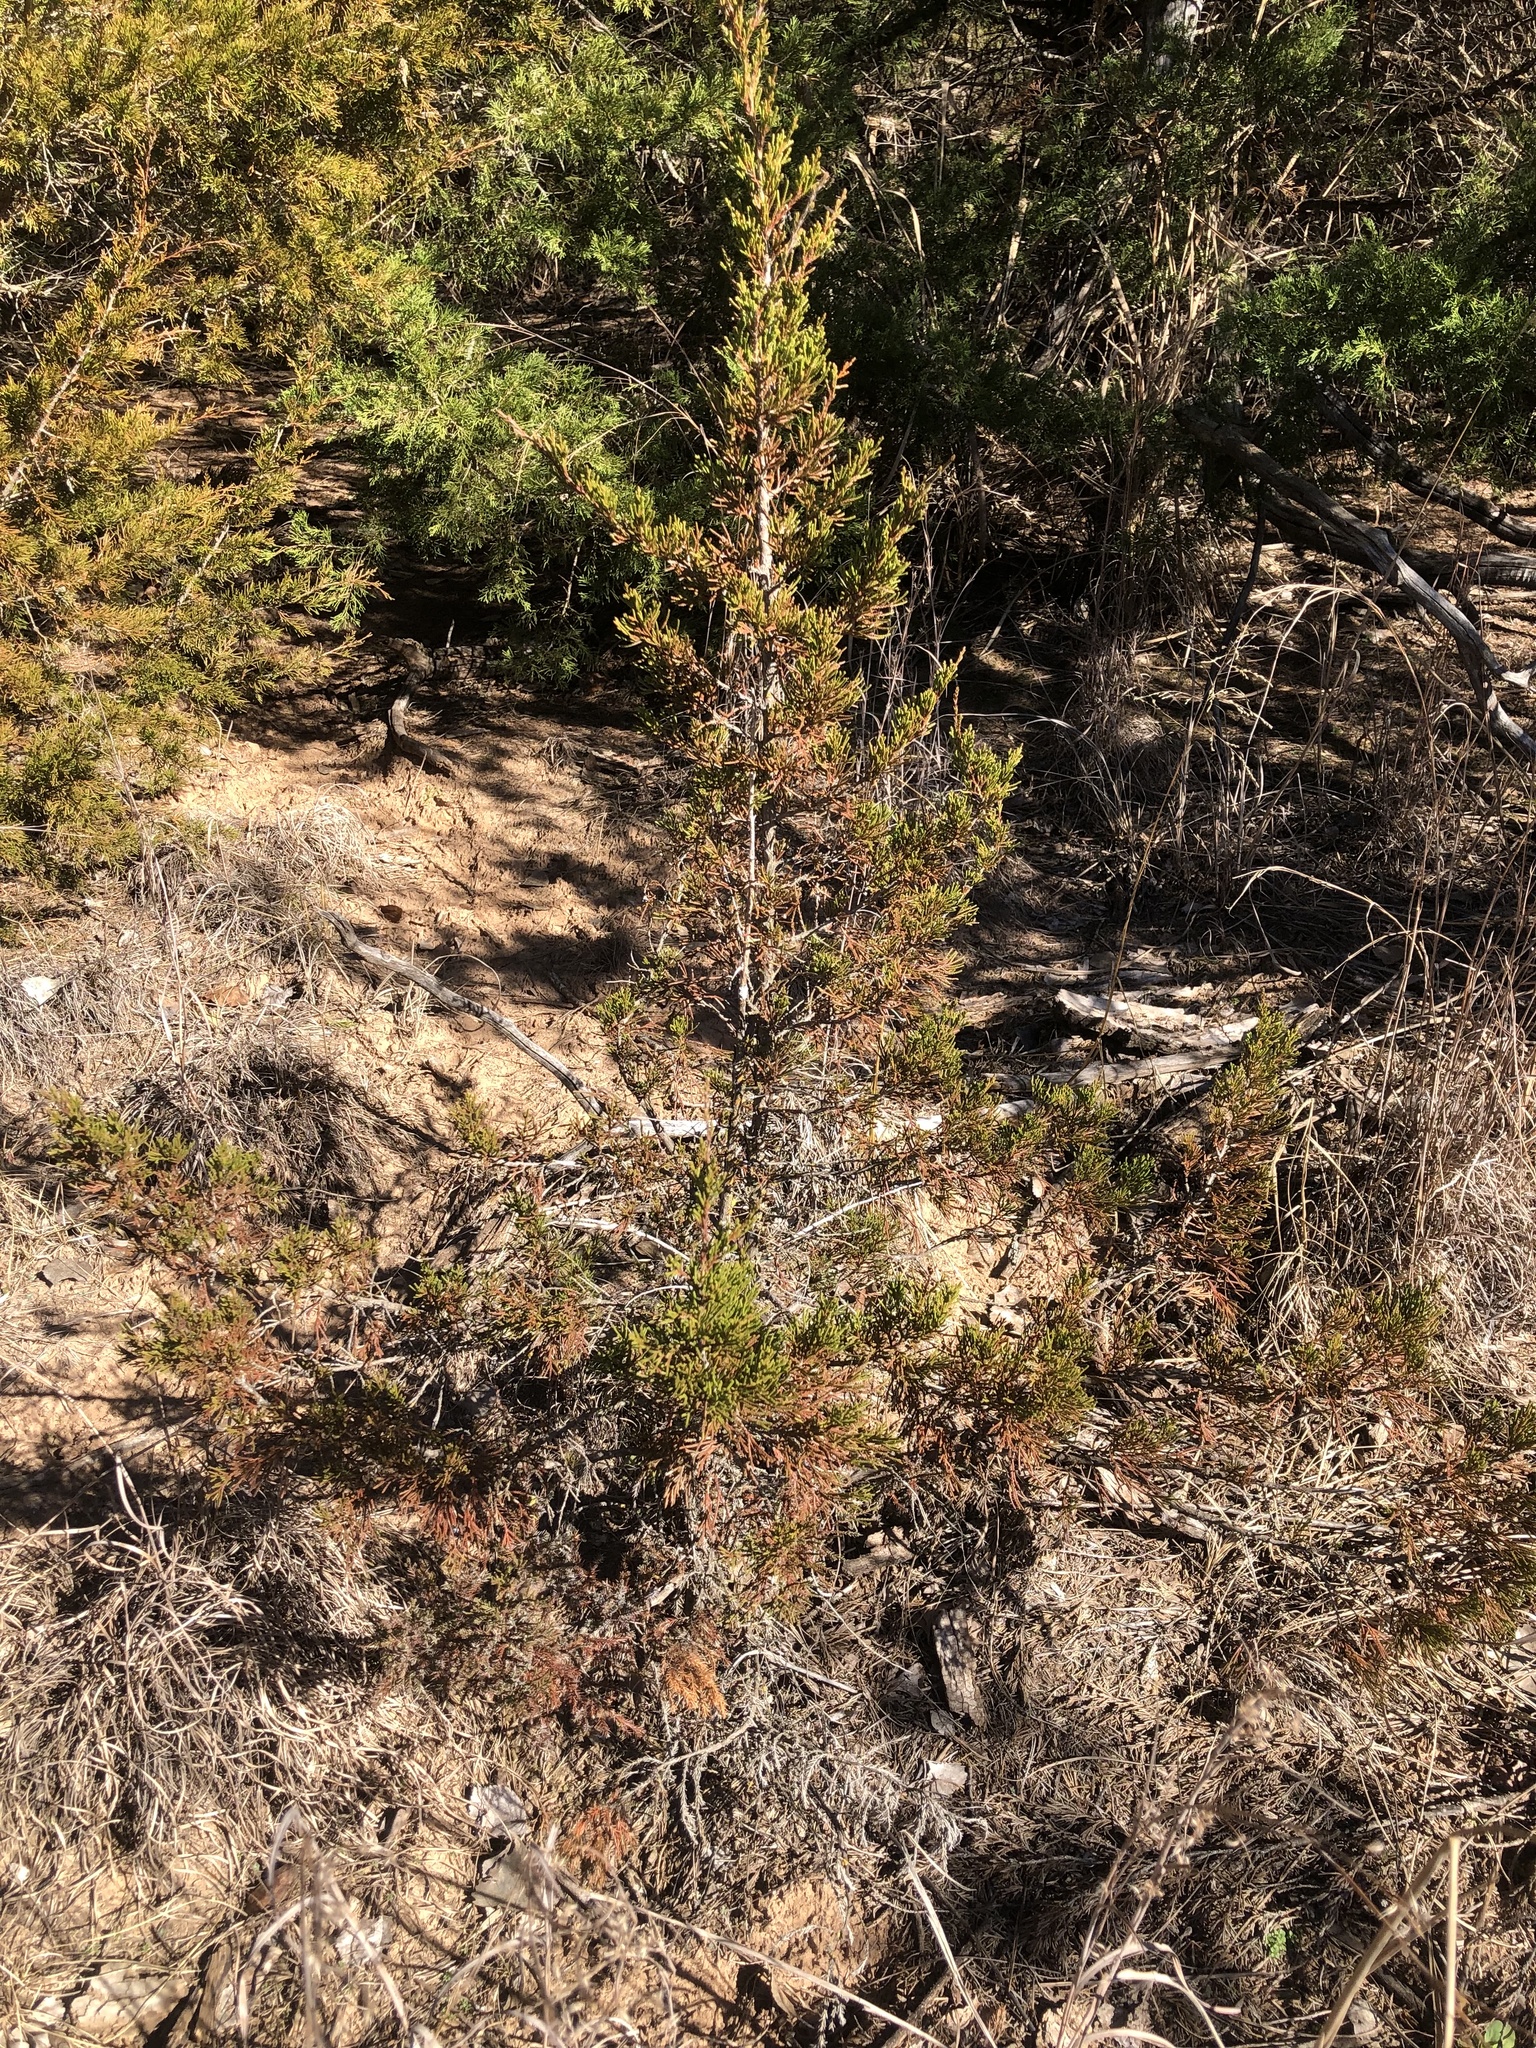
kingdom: Plantae
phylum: Tracheophyta
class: Pinopsida
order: Pinales
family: Cupressaceae
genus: Juniperus
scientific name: Juniperus virginiana
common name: Red juniper
